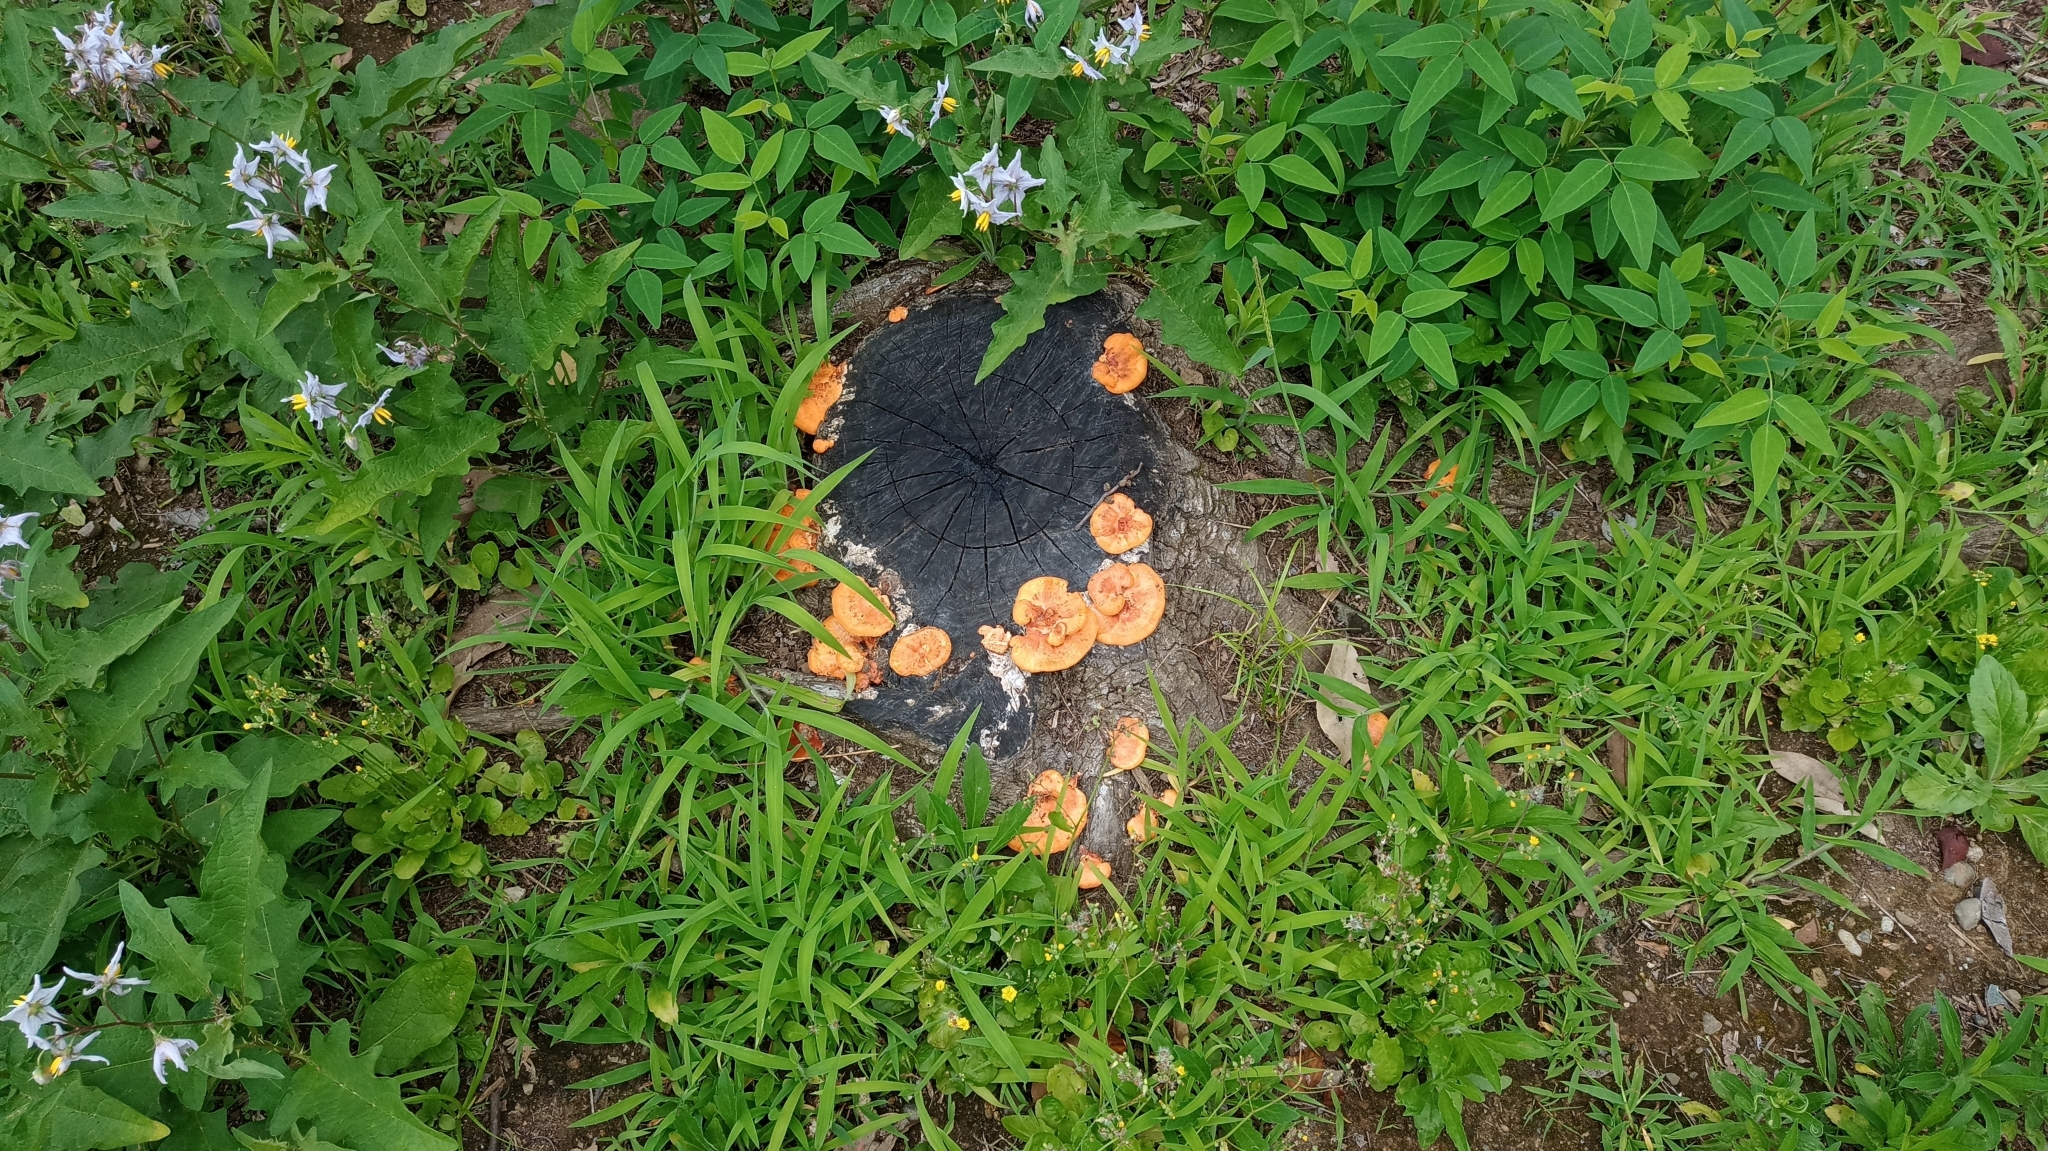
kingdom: Fungi
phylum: Basidiomycota
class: Agaricomycetes
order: Polyporales
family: Polyporaceae
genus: Trametes
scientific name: Trametes coccinea
